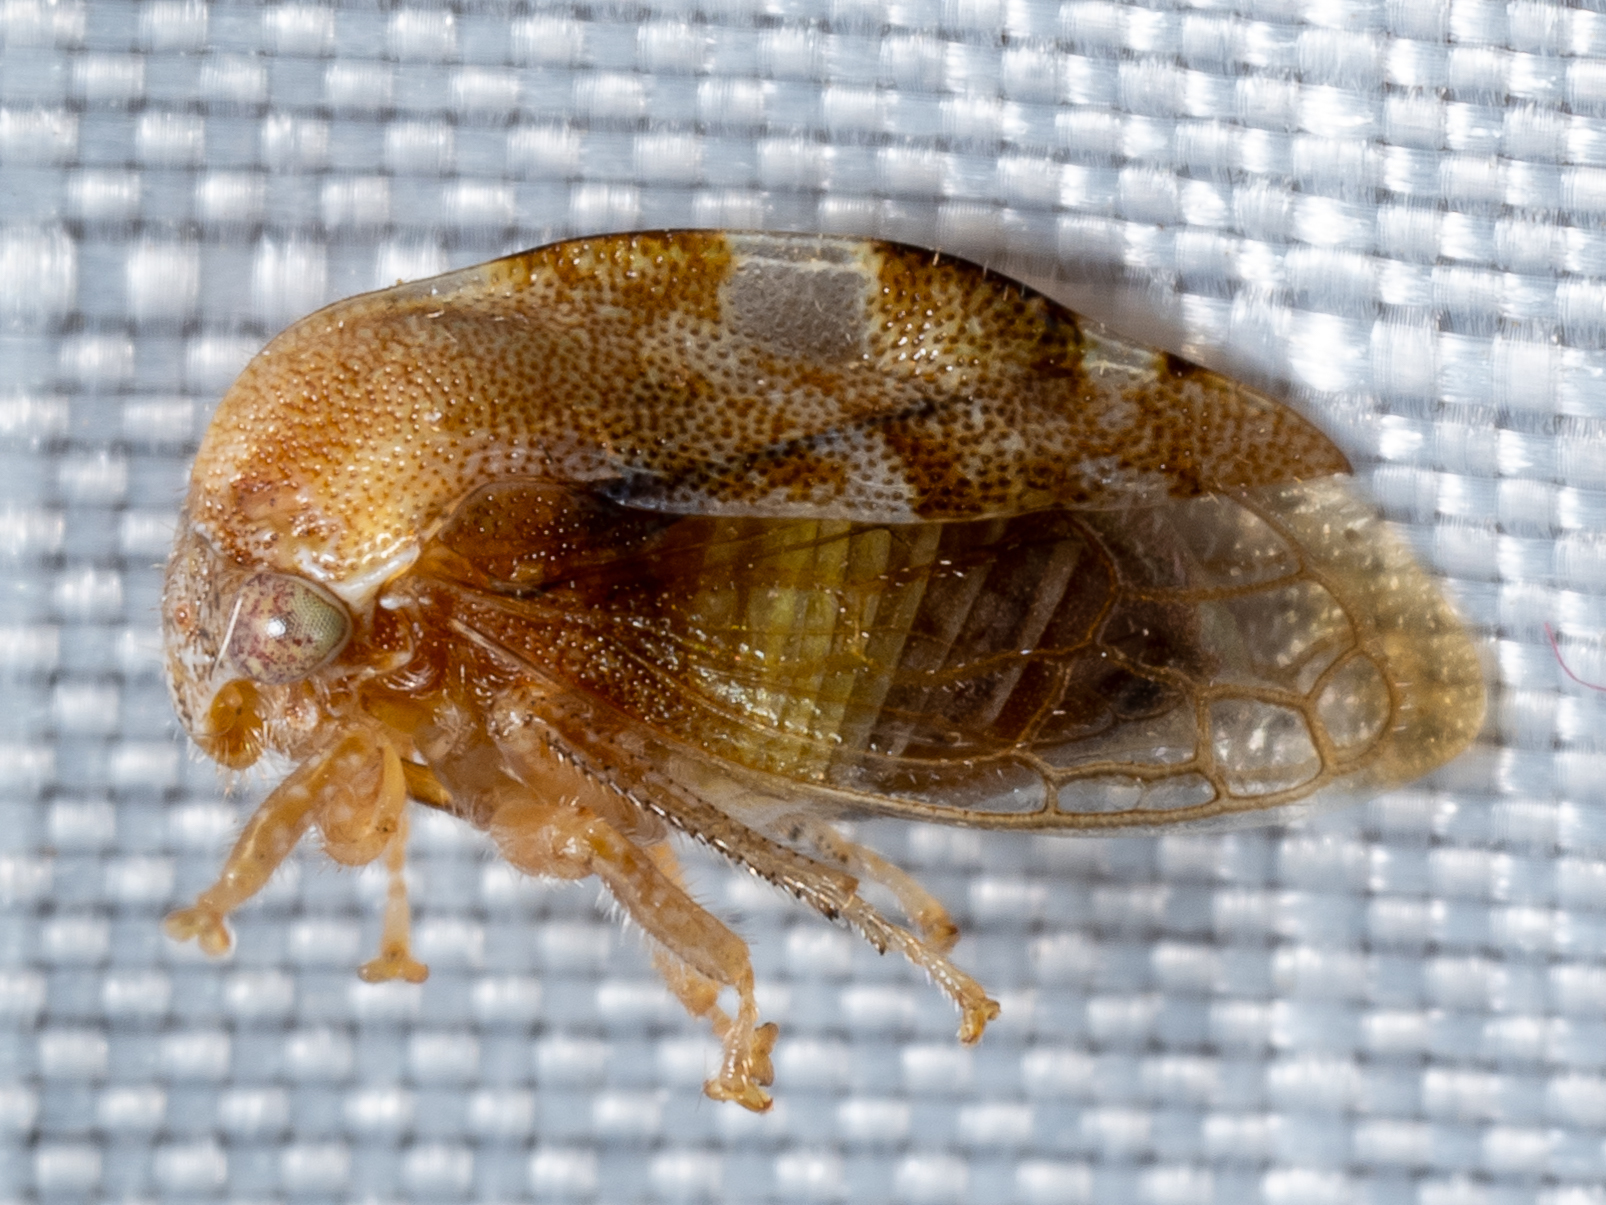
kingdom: Animalia
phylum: Arthropoda
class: Insecta
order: Hemiptera
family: Membracidae
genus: Xantholobus
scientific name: Xantholobus intermedia
